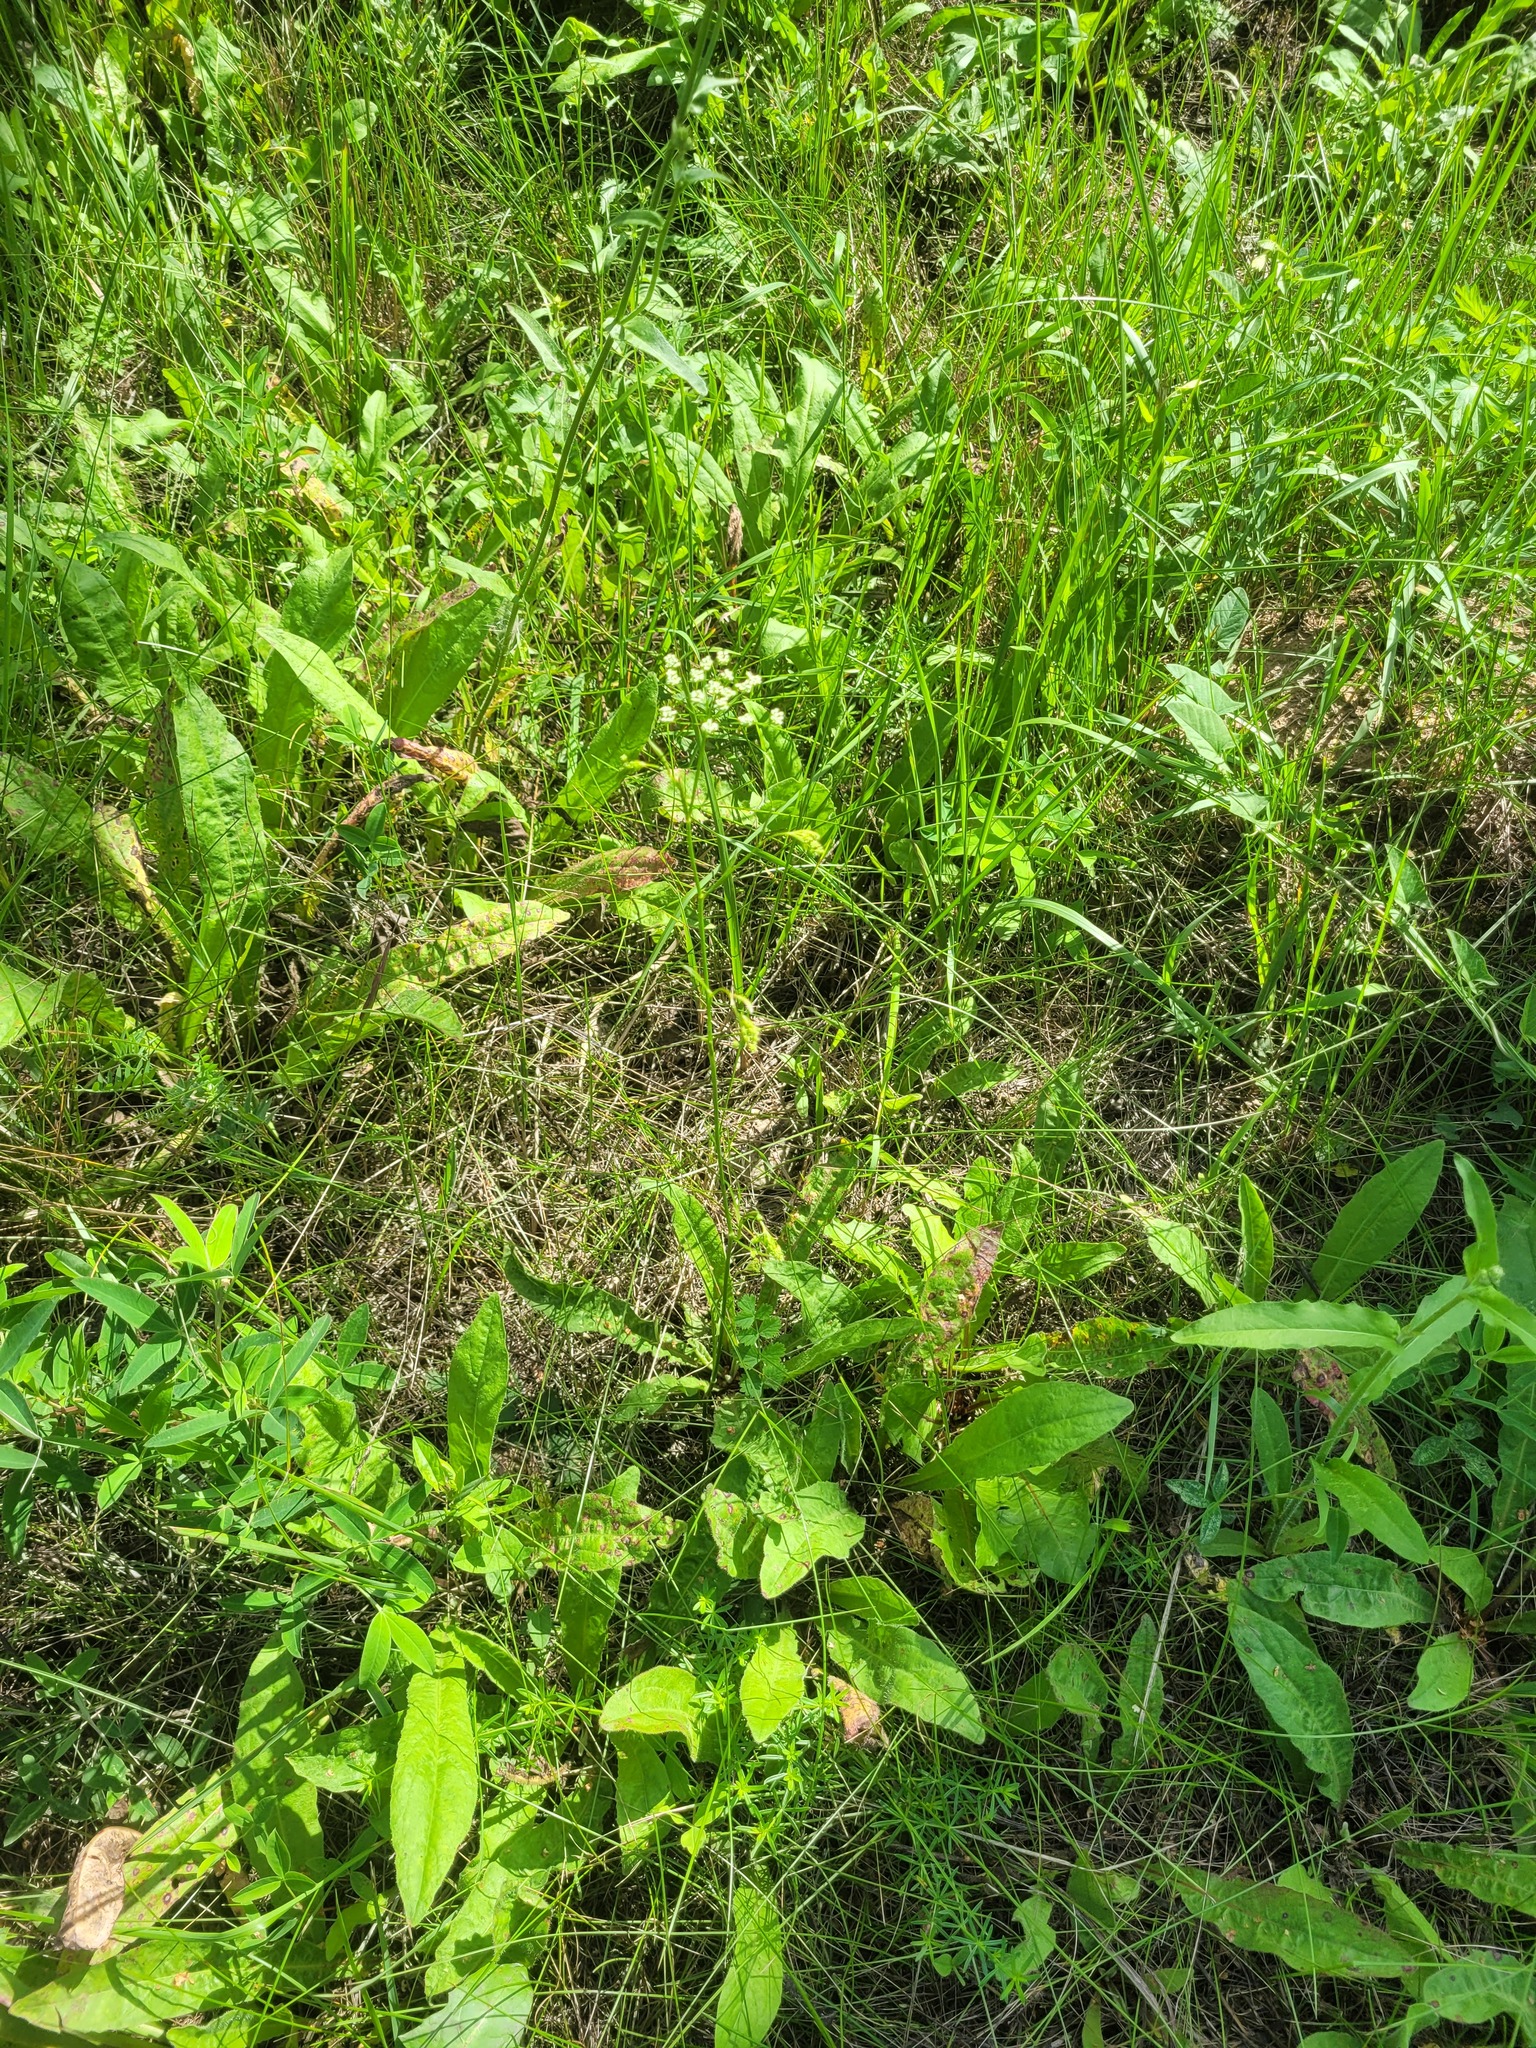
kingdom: Plantae
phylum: Tracheophyta
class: Magnoliopsida
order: Apiales
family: Apiaceae
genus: Pimpinella
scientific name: Pimpinella saxifraga
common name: Burnet-saxifrage
